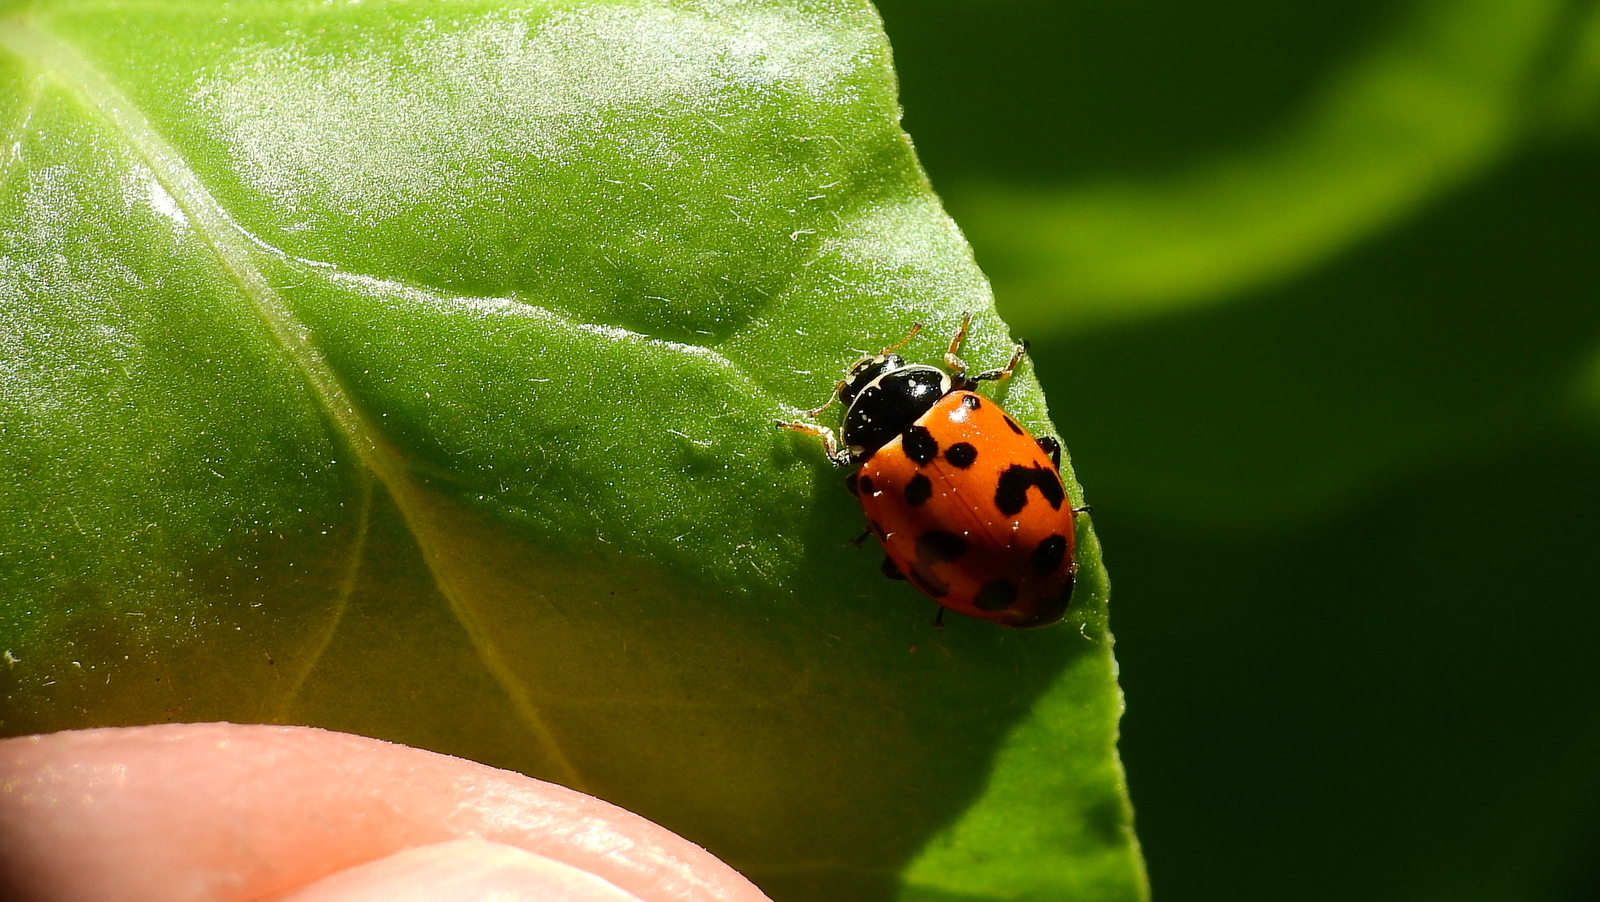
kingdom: Animalia
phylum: Arthropoda
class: Insecta
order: Coleoptera
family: Coccinellidae
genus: Hippodamia
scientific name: Hippodamia variegata
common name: Ladybird beetle
